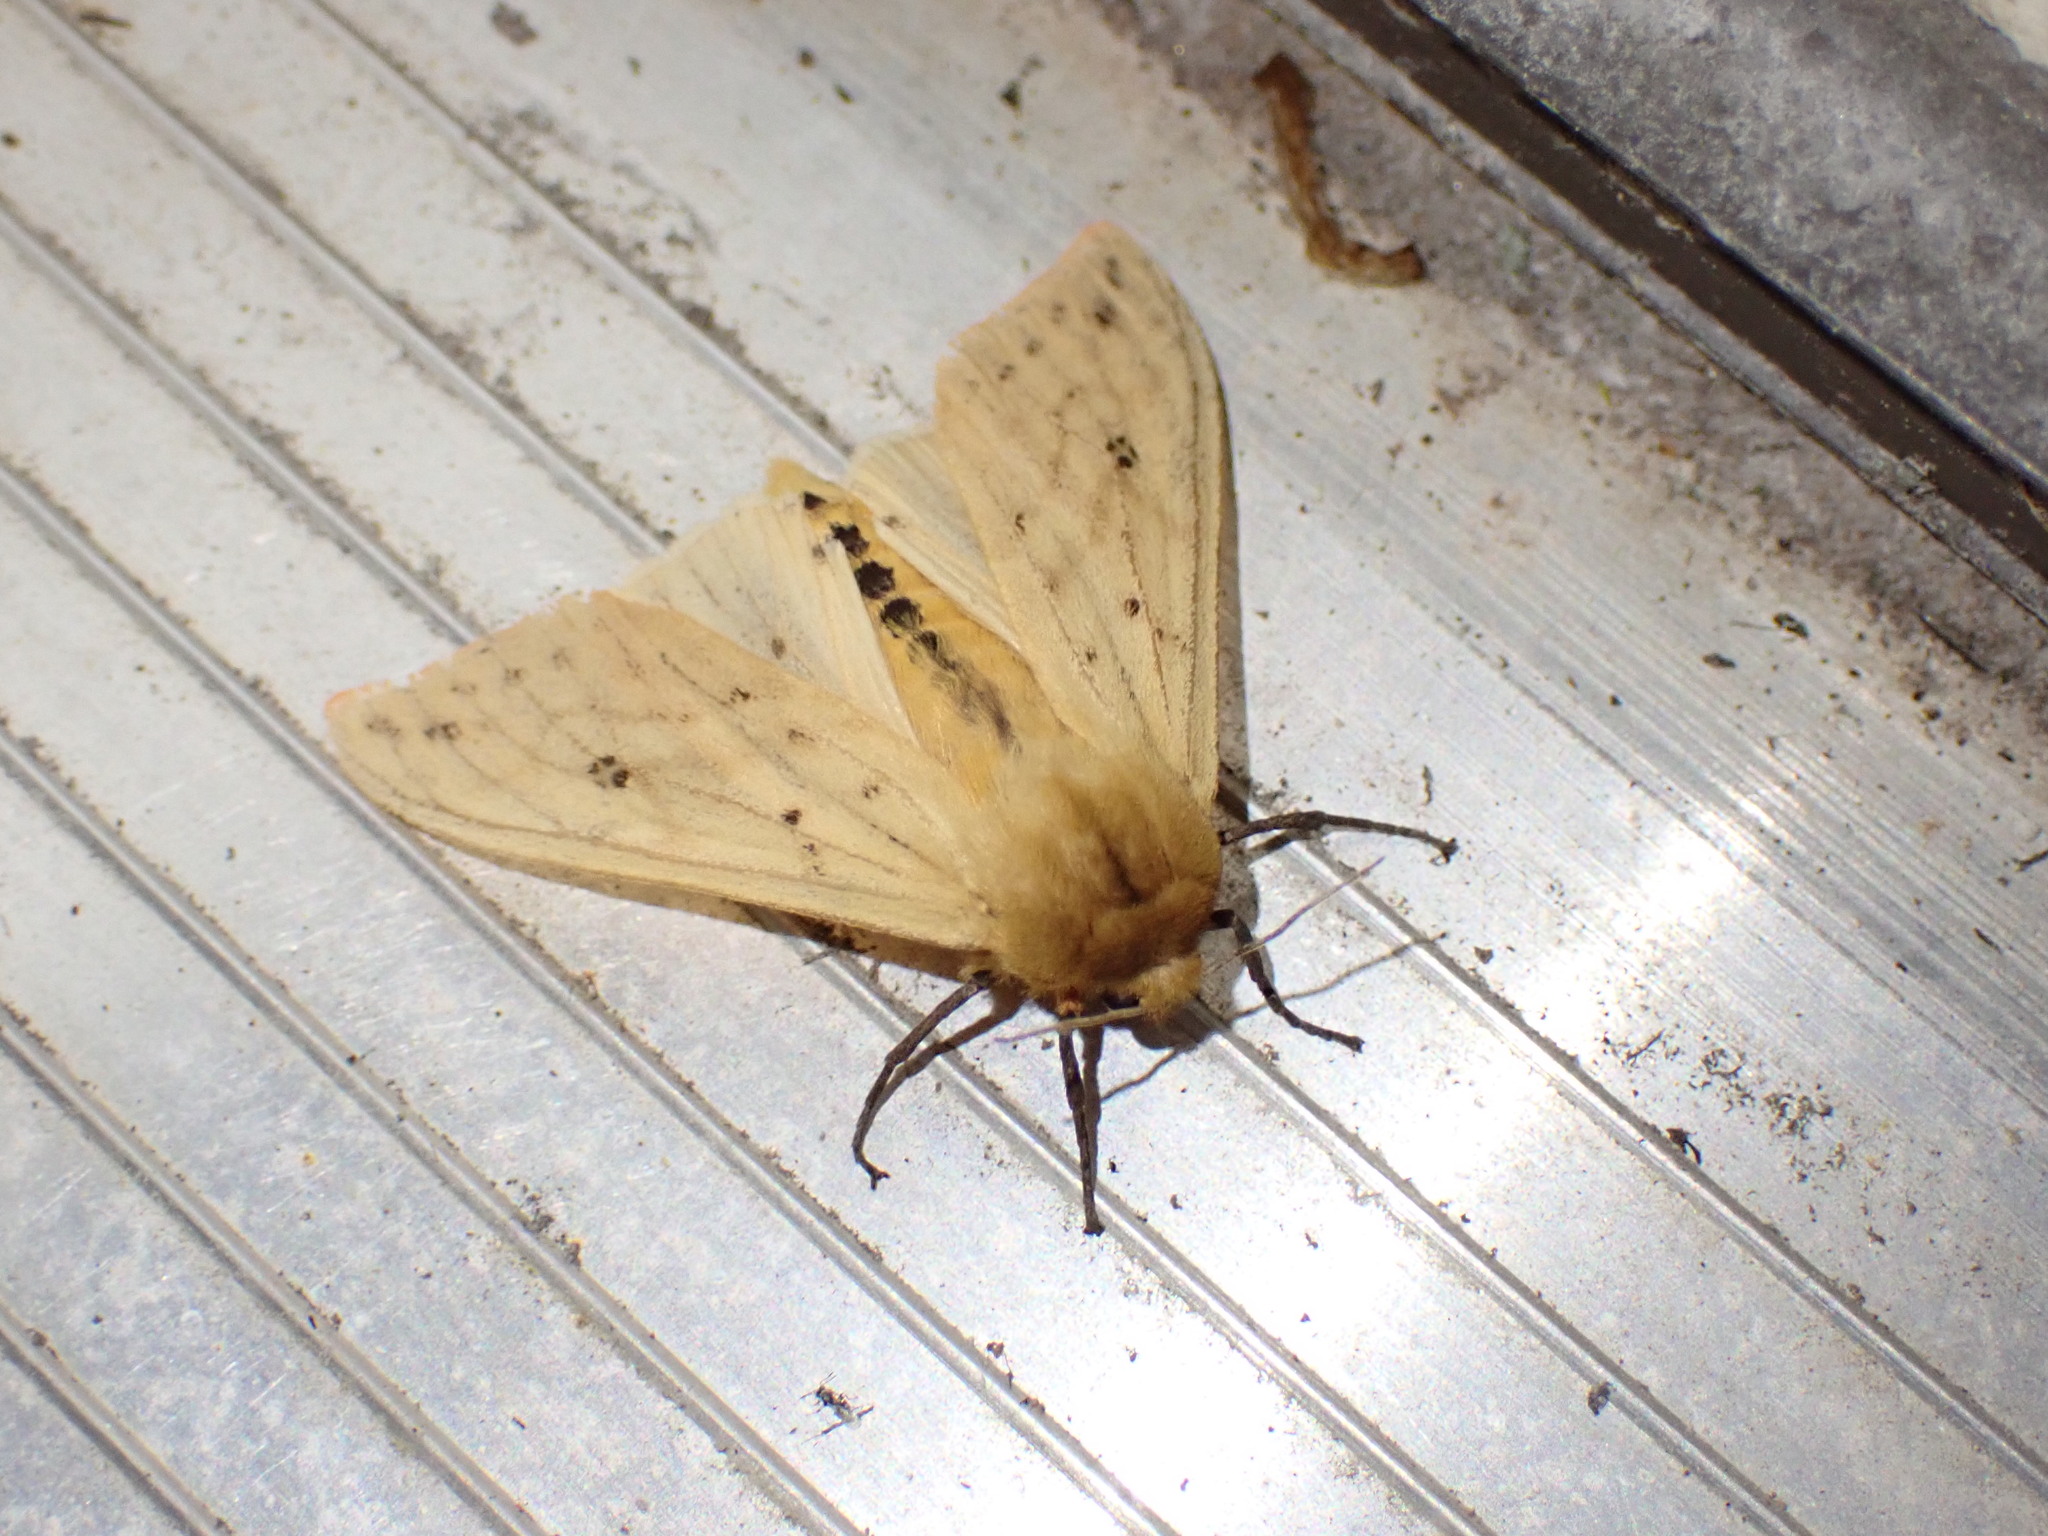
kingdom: Animalia
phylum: Arthropoda
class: Insecta
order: Lepidoptera
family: Erebidae
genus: Pyrrharctia
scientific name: Pyrrharctia isabella
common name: Isabella tiger moth
